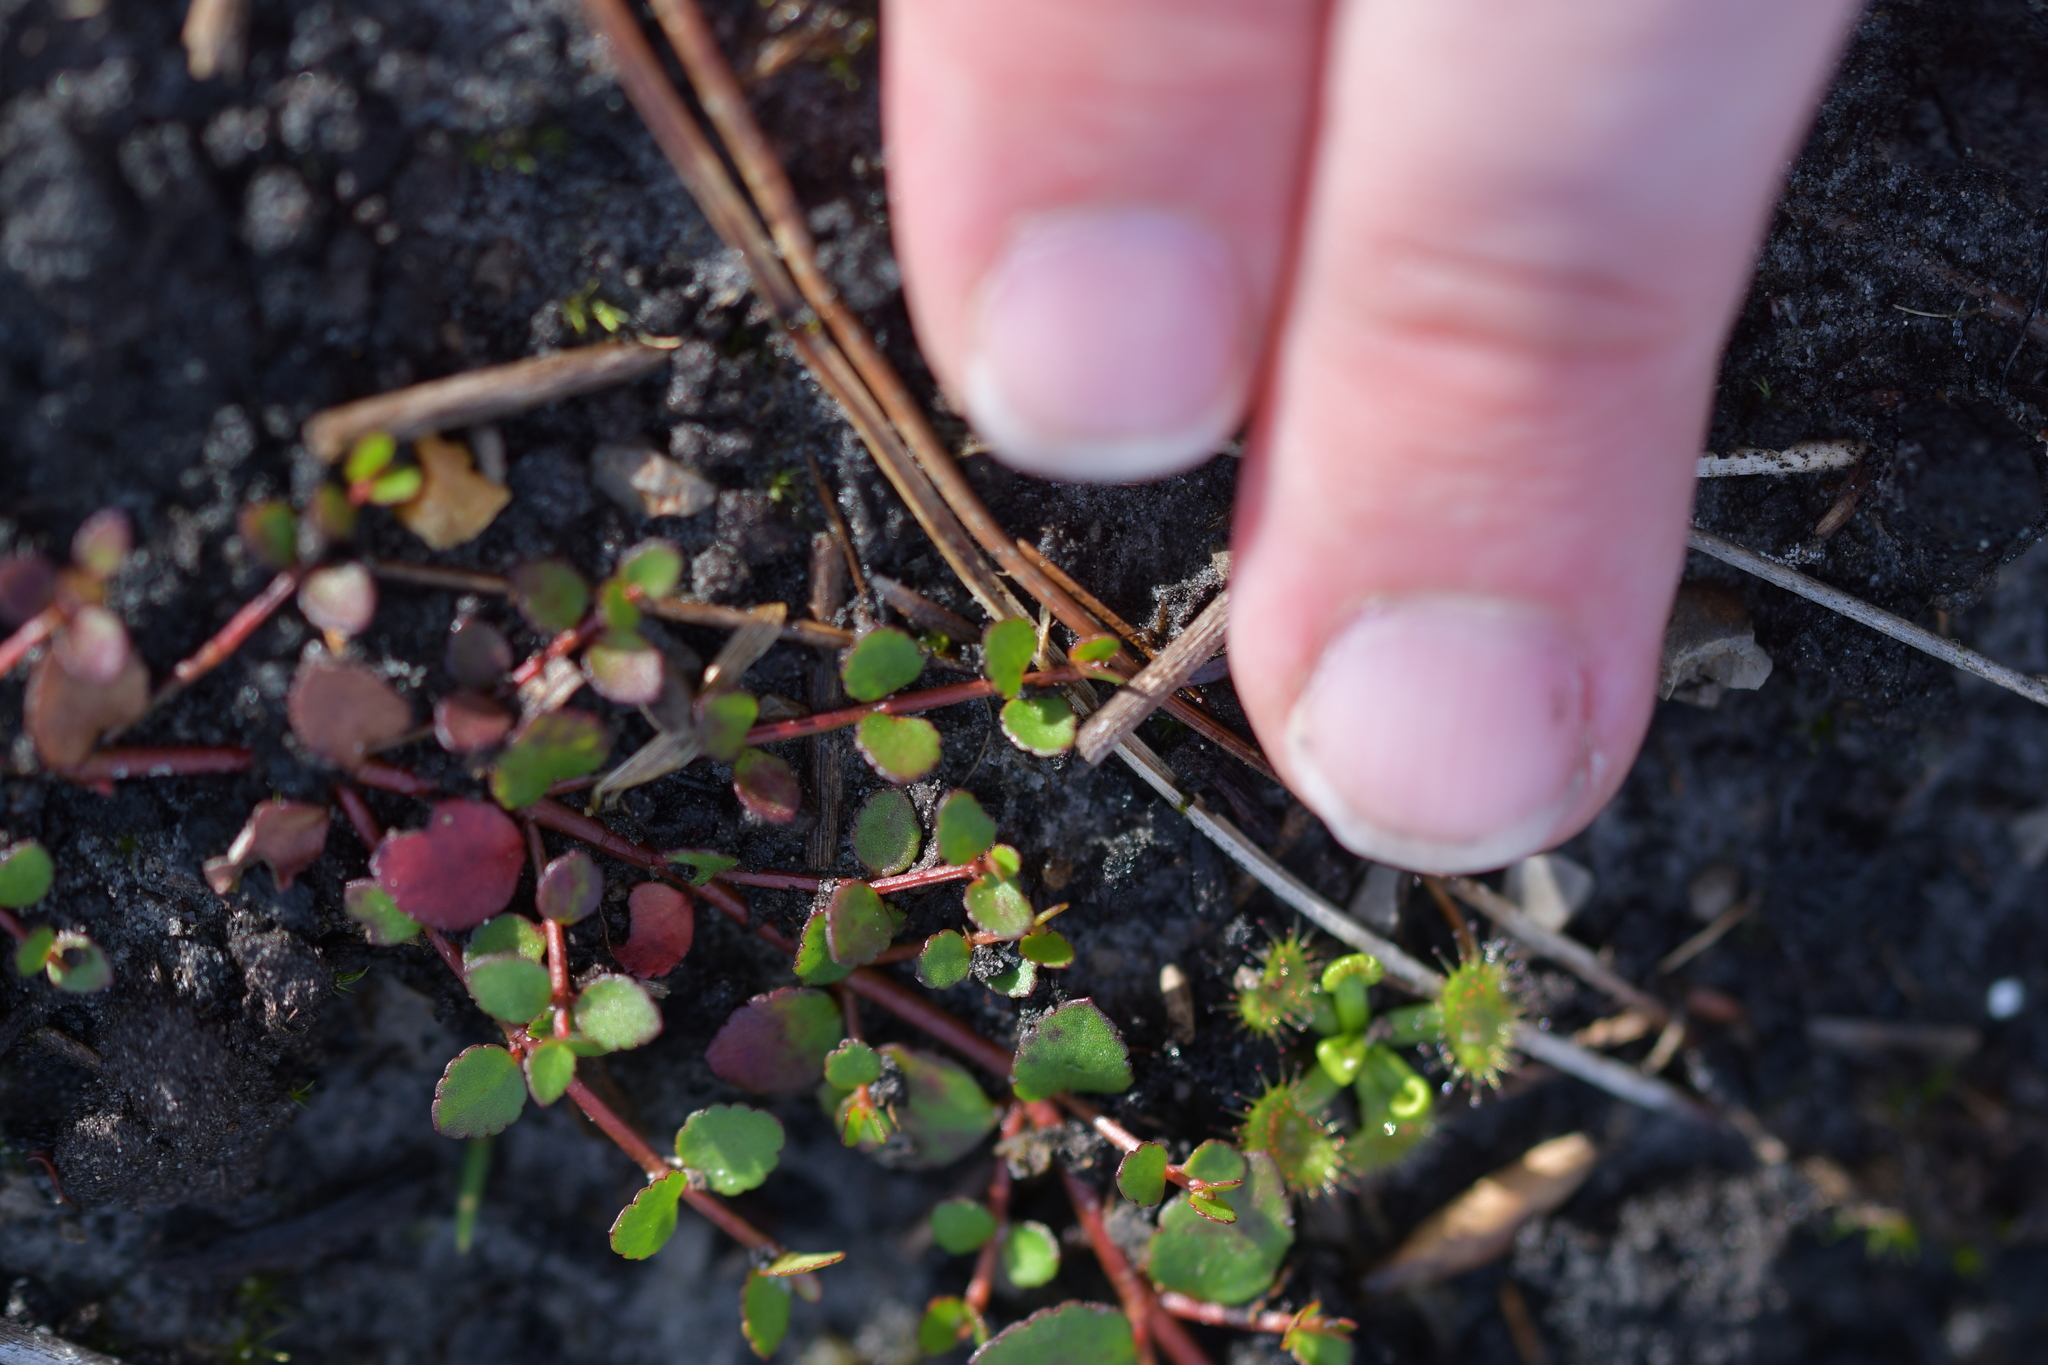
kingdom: Plantae
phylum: Tracheophyta
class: Magnoliopsida
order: Saxifragales
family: Haloragaceae
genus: Gonocarpus
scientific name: Gonocarpus micranthus
